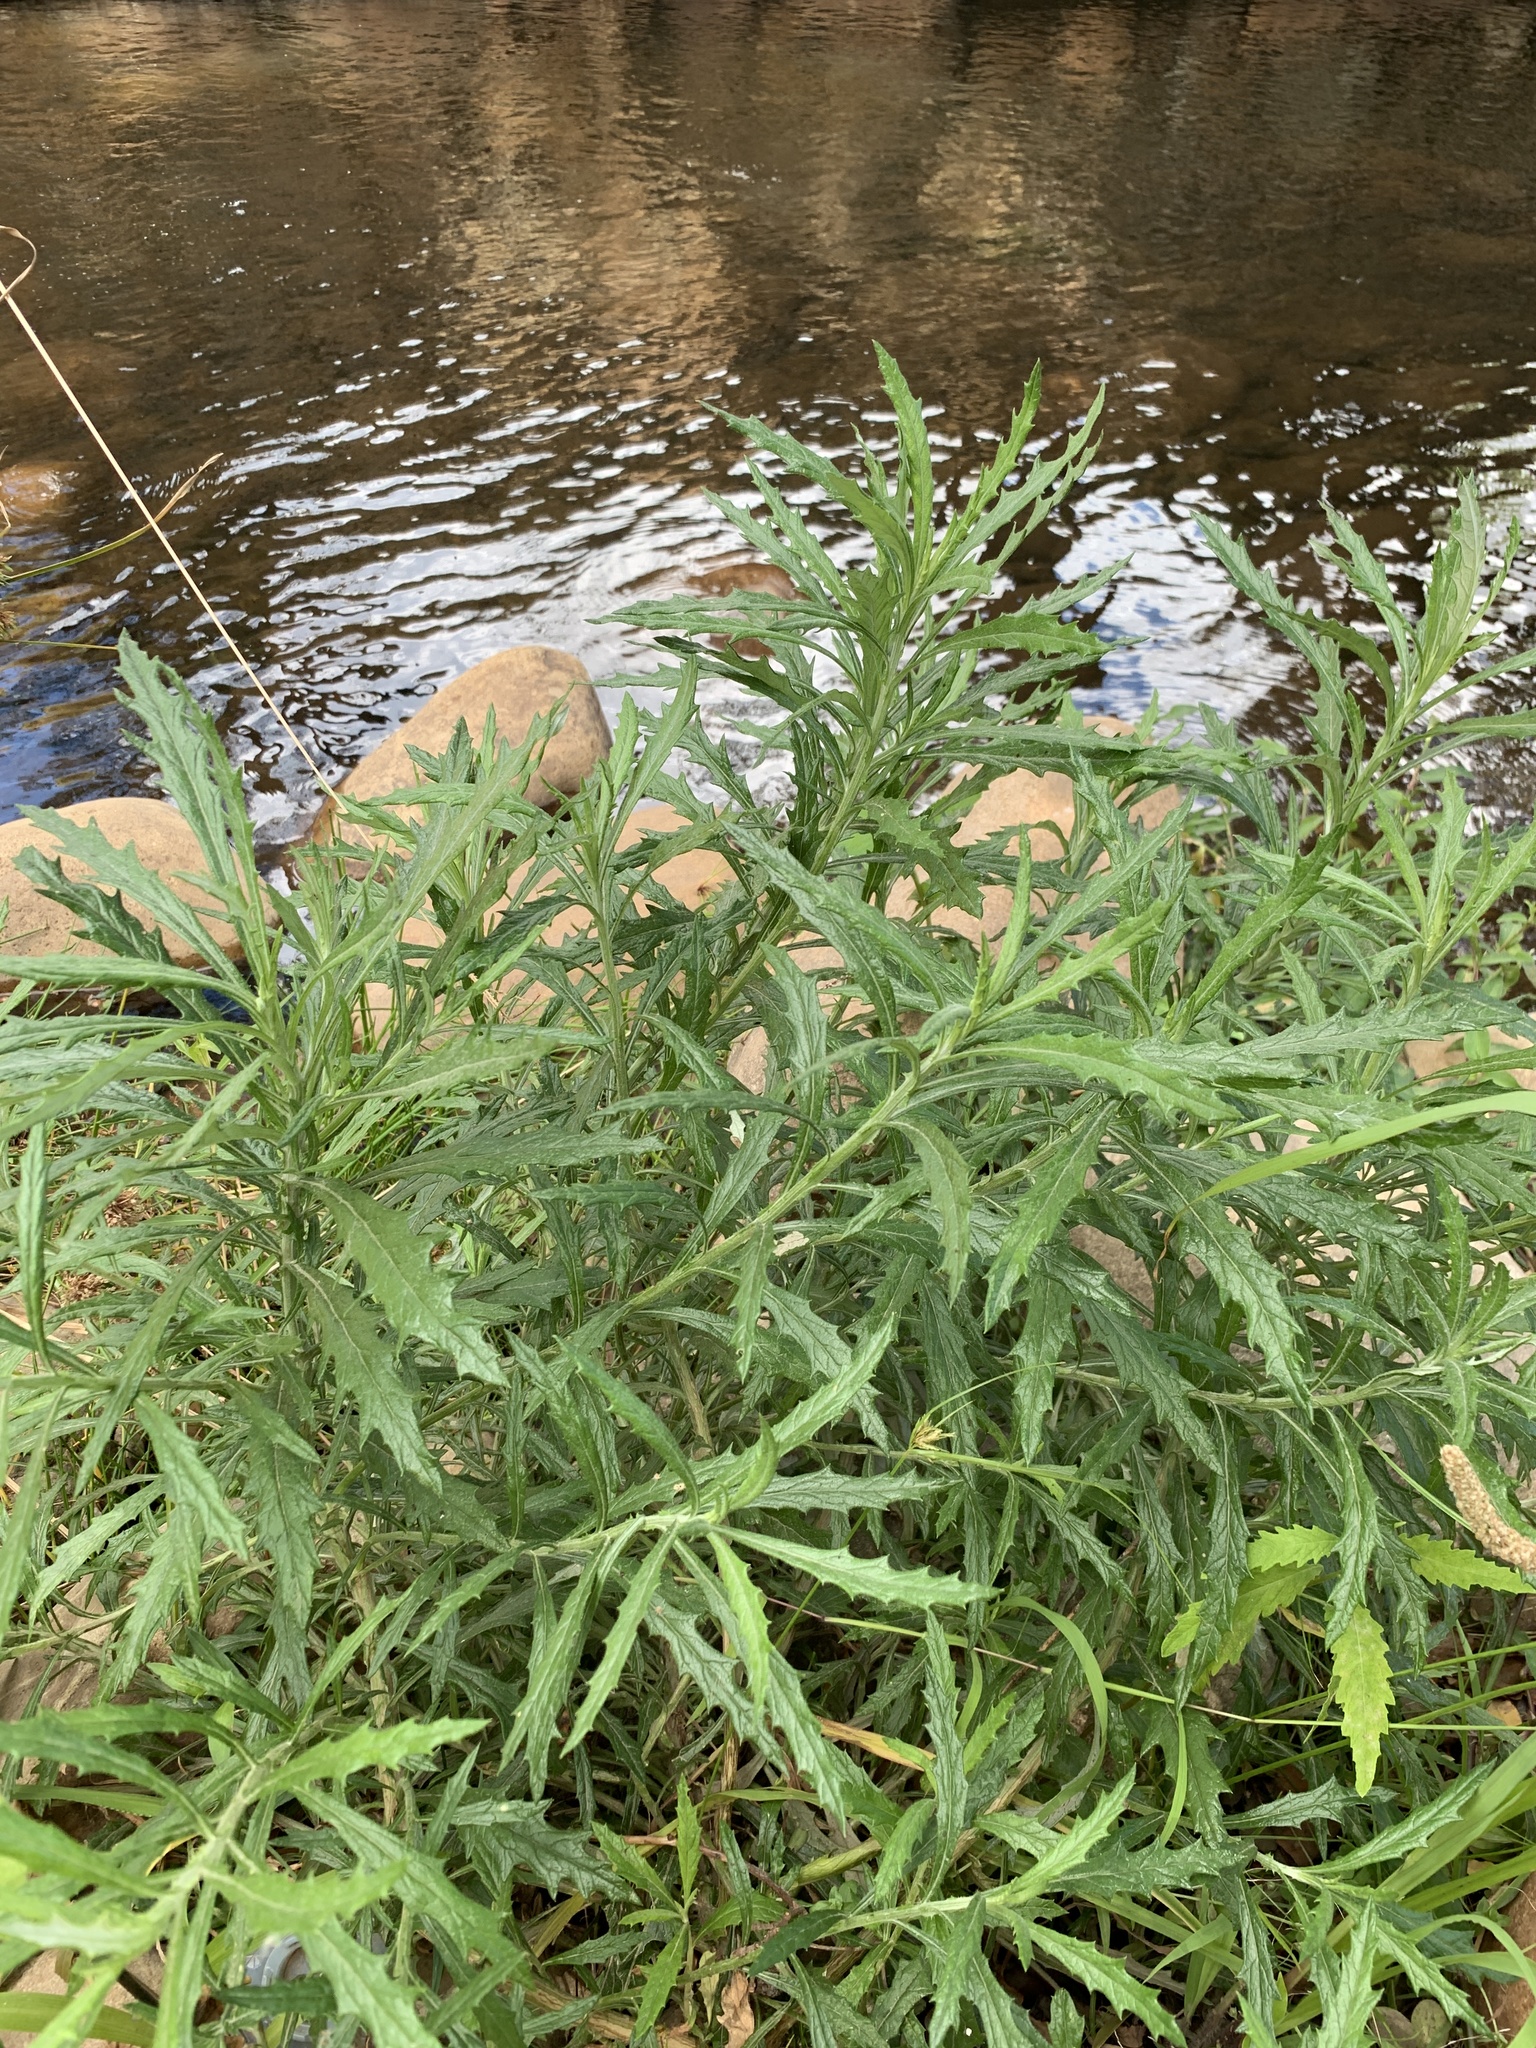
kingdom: Plantae
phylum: Tracheophyta
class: Magnoliopsida
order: Asterales
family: Asteraceae
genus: Senecio
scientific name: Senecio pterophorus
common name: Shoddy ragwort
